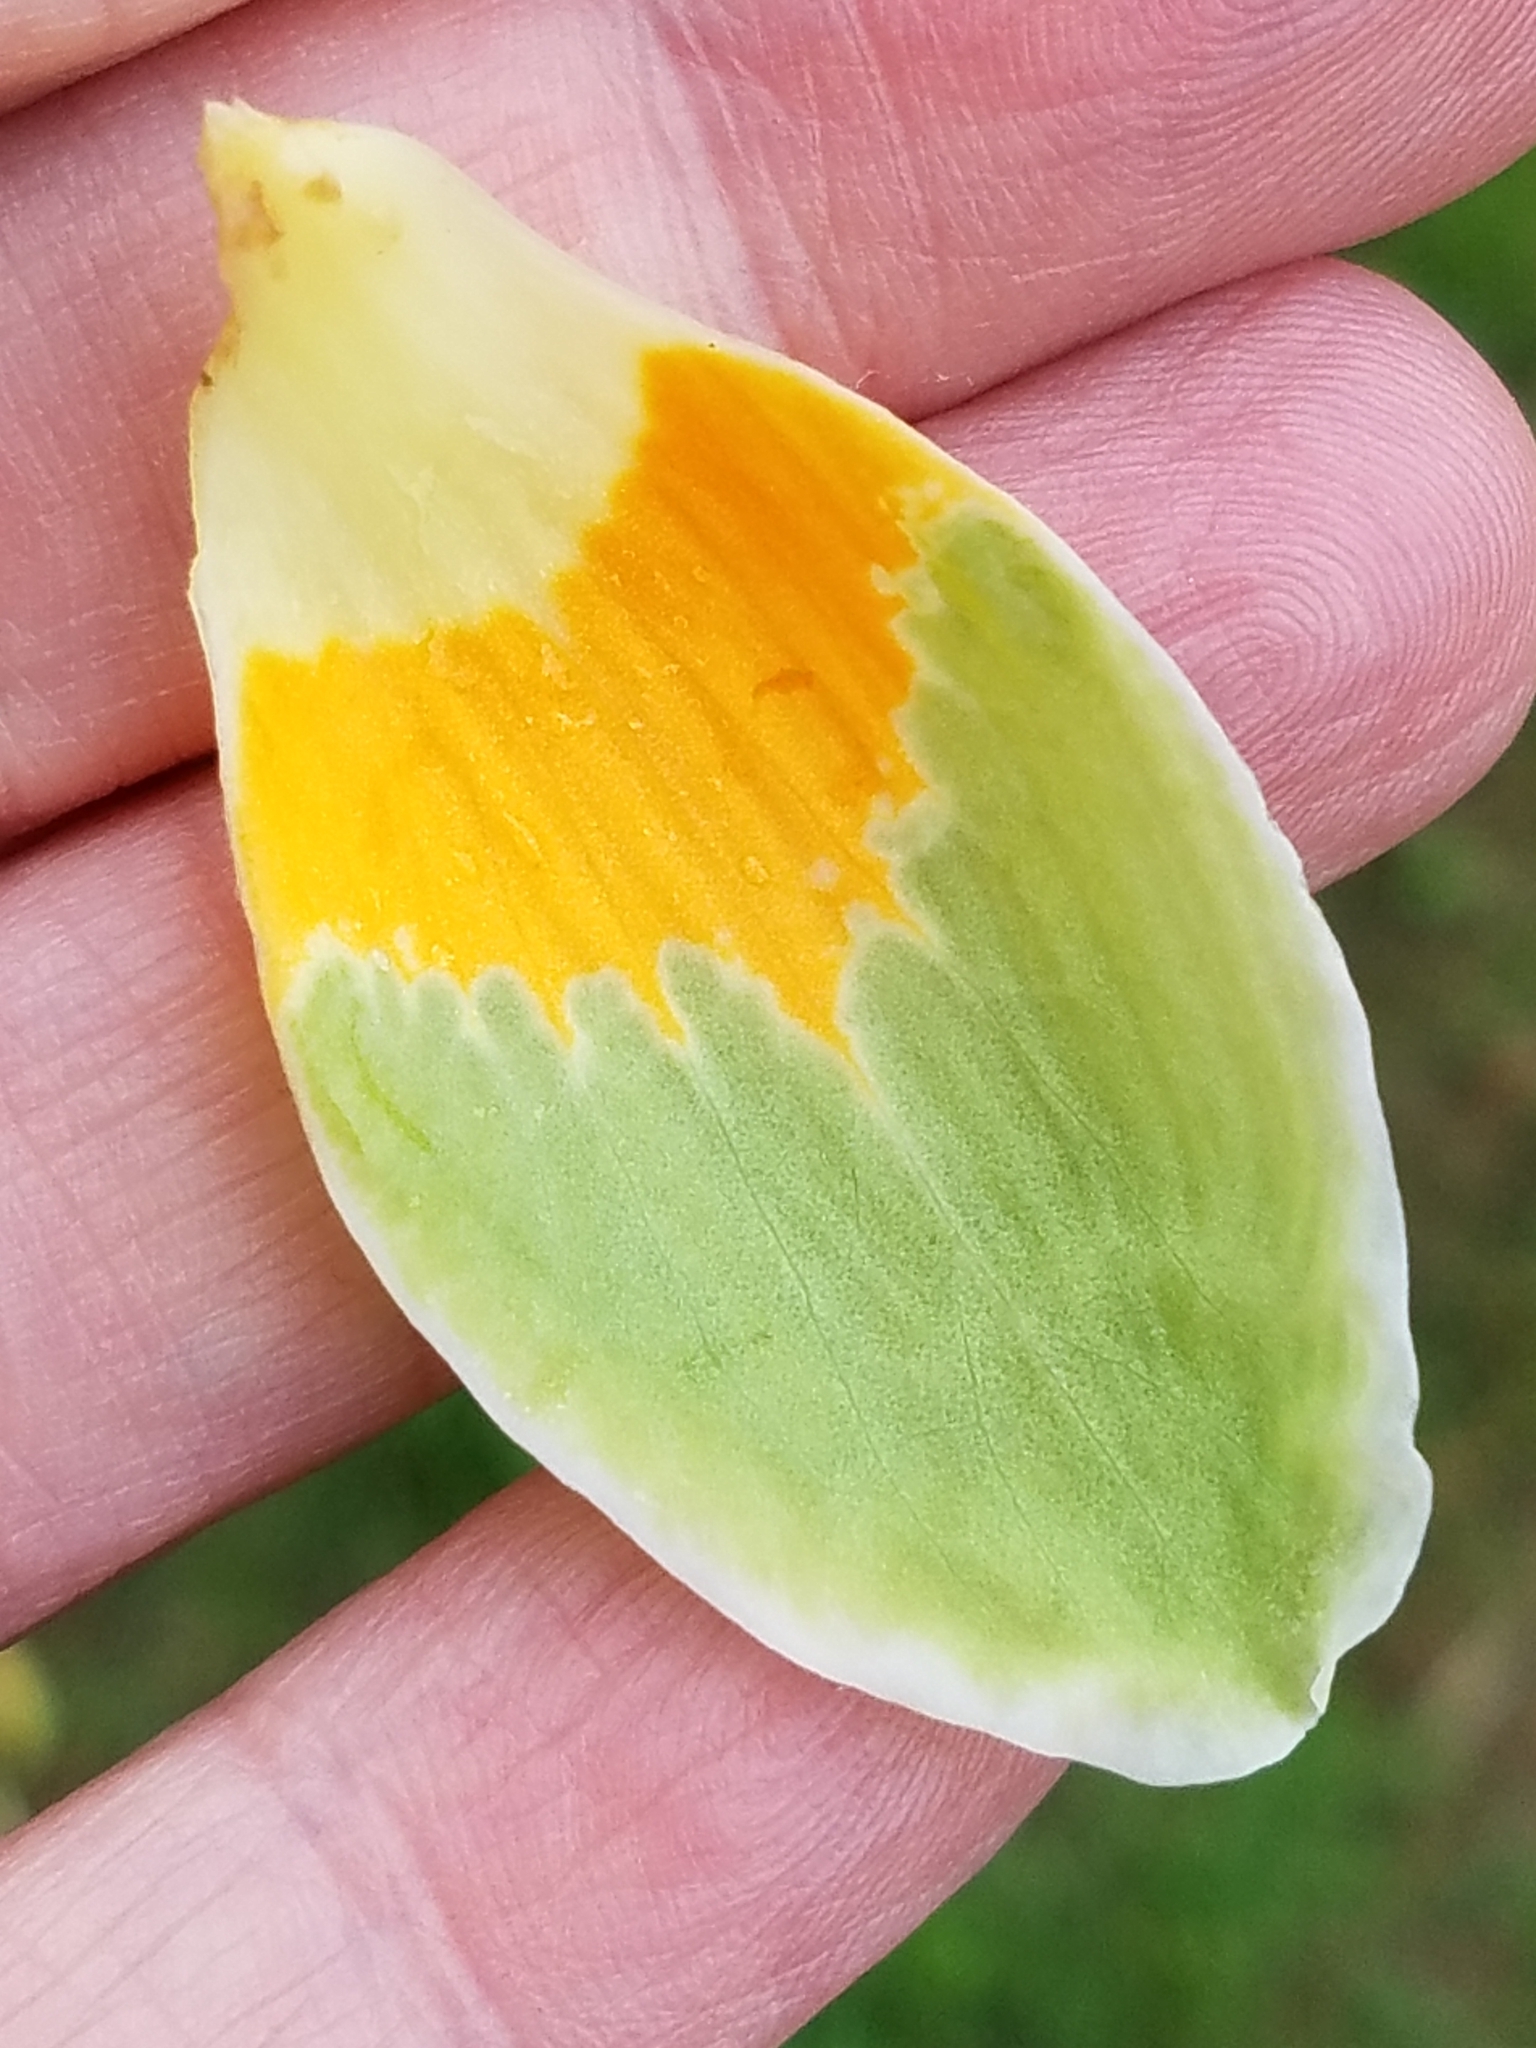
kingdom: Plantae
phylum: Tracheophyta
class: Magnoliopsida
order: Magnoliales
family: Magnoliaceae
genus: Liriodendron
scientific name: Liriodendron tulipifera
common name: Tulip tree
